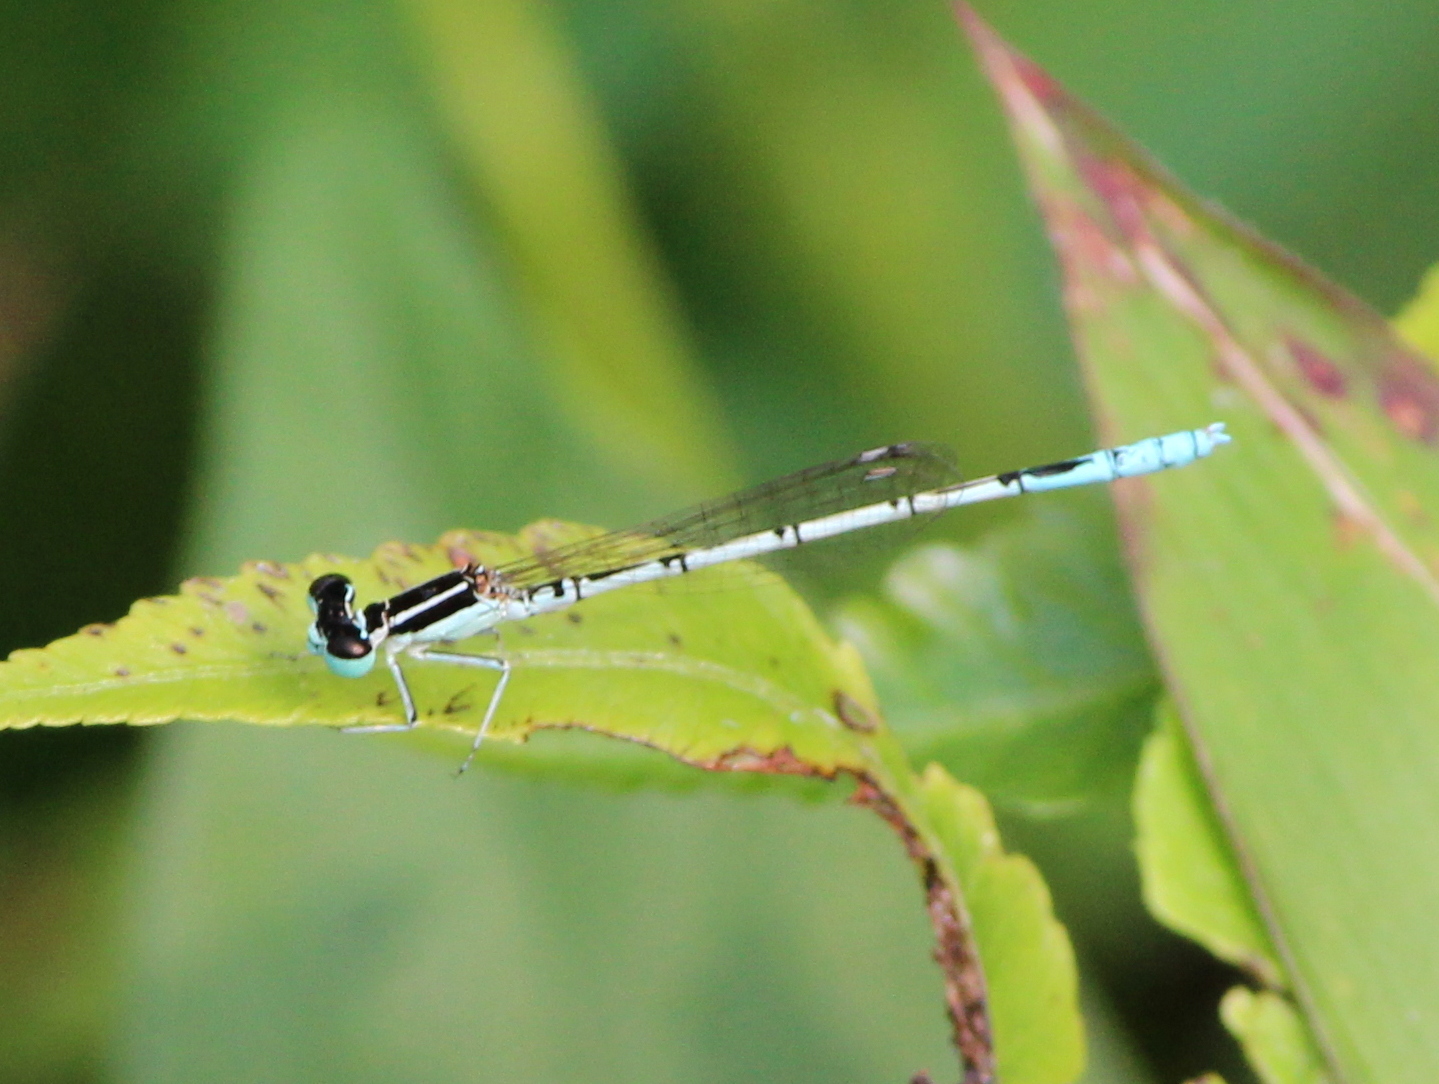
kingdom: Animalia
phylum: Arthropoda
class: Insecta
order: Odonata
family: Coenagrionidae
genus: Agriocnemis
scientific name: Agriocnemis pieris
